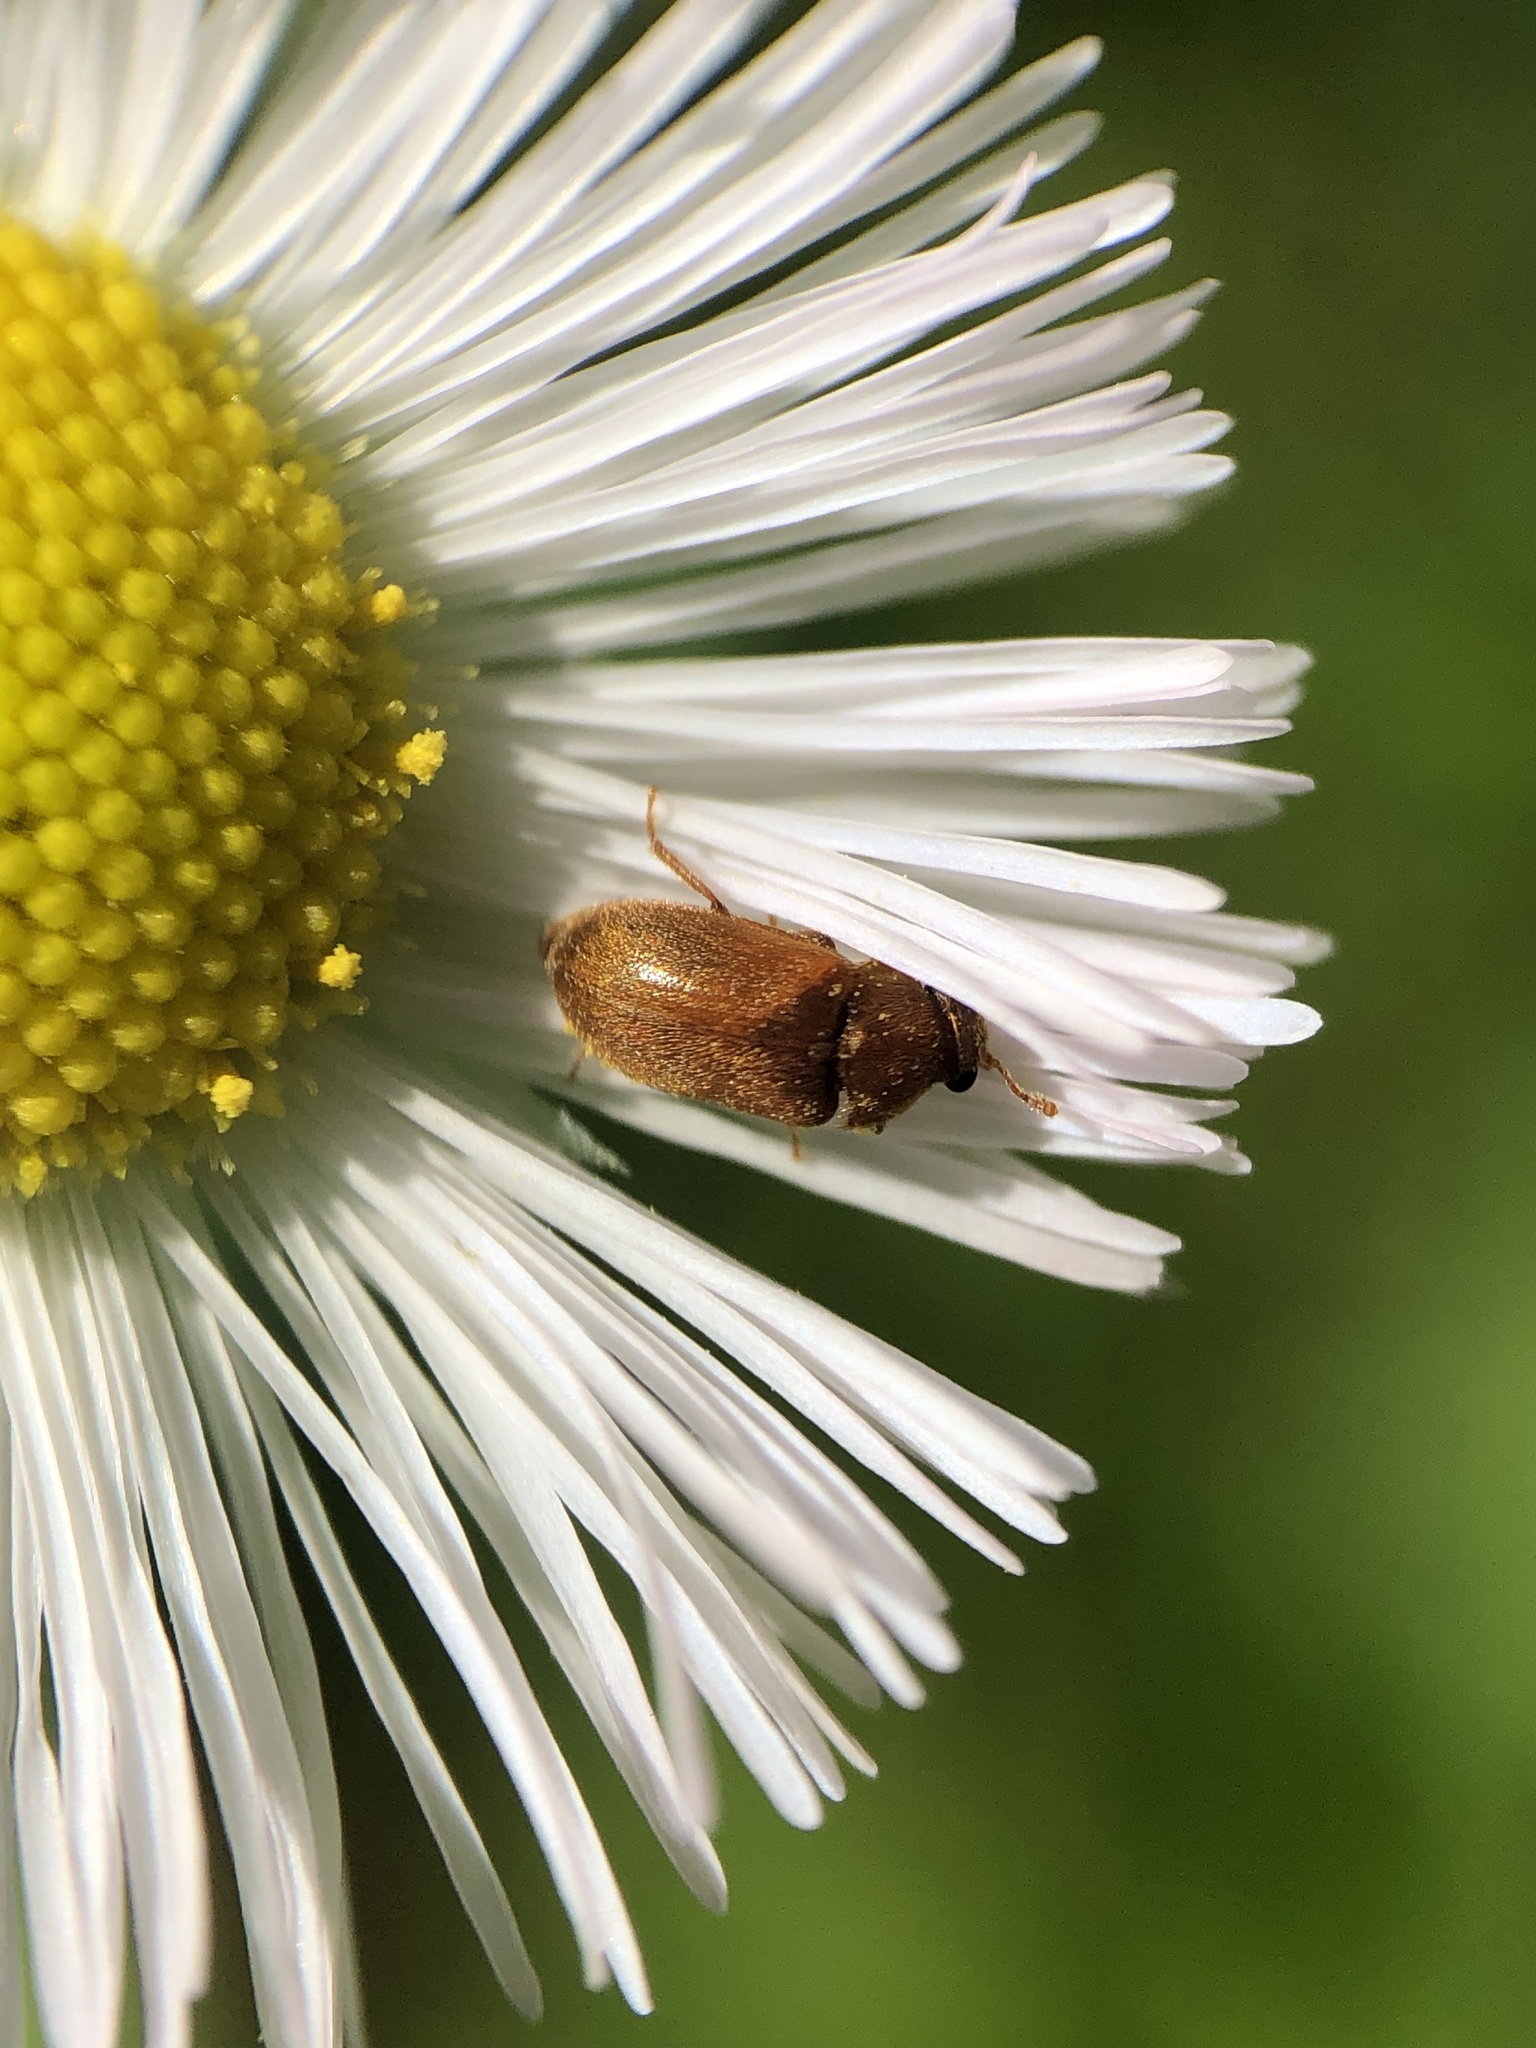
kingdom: Animalia
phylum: Arthropoda
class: Insecta
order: Coleoptera
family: Byturidae
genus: Byturus
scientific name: Byturus unicolor
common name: Raspberry fruitworm beetle
